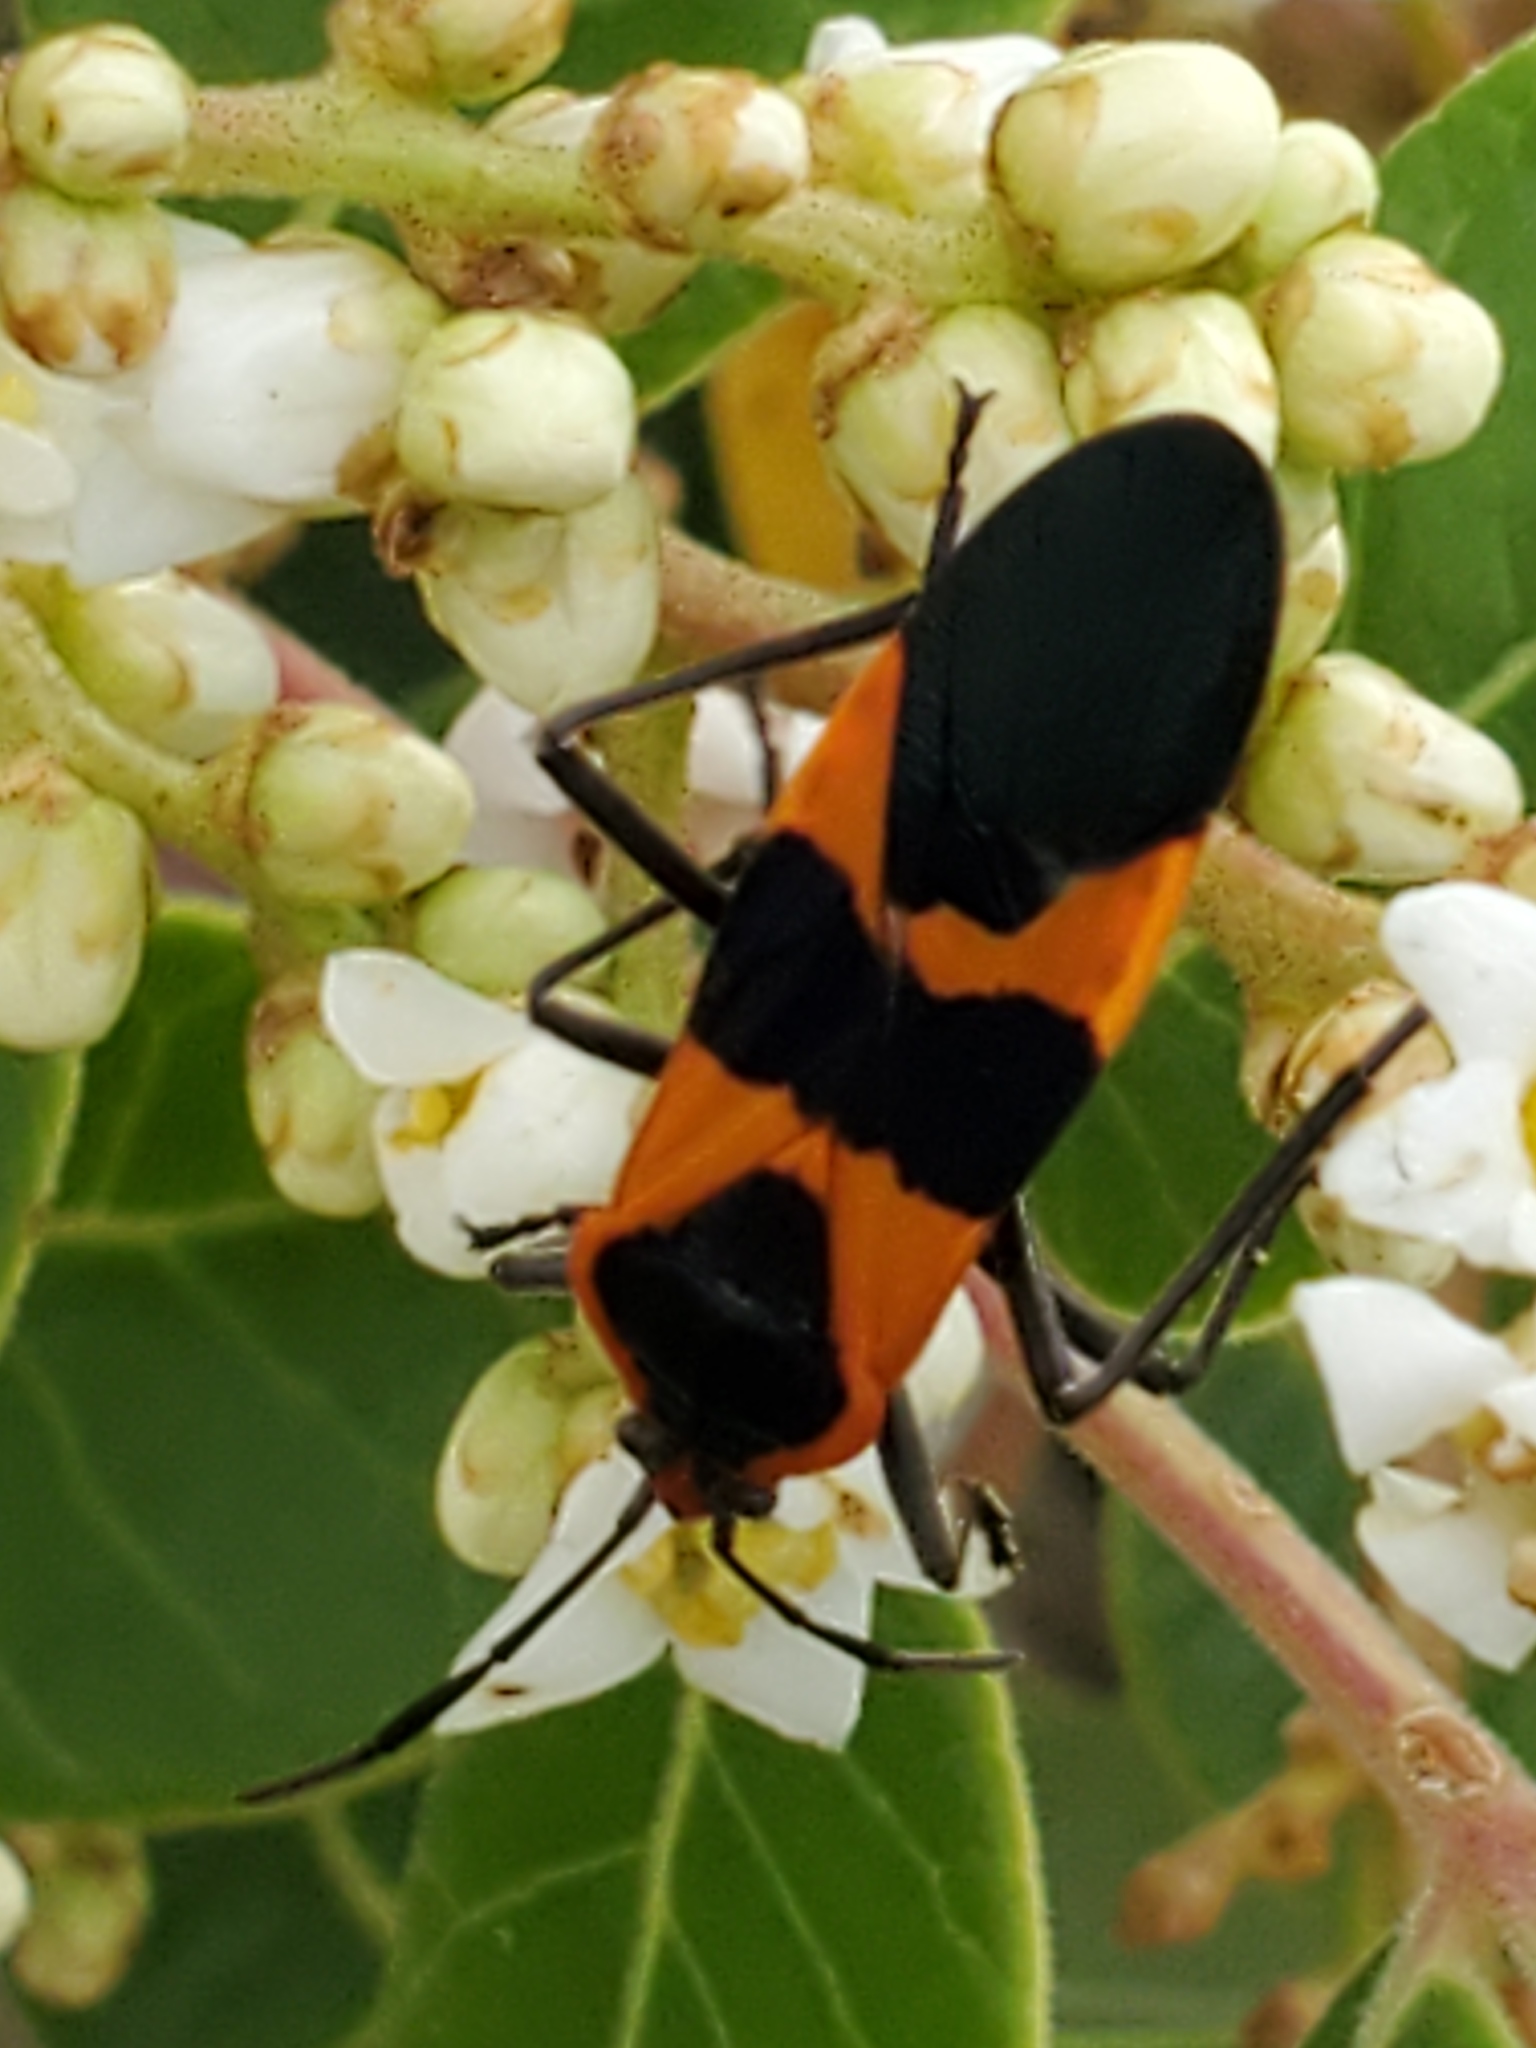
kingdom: Animalia
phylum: Arthropoda
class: Insecta
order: Hemiptera
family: Lygaeidae
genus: Oncopeltus
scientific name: Oncopeltus fasciatus
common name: Large milkweed bug
